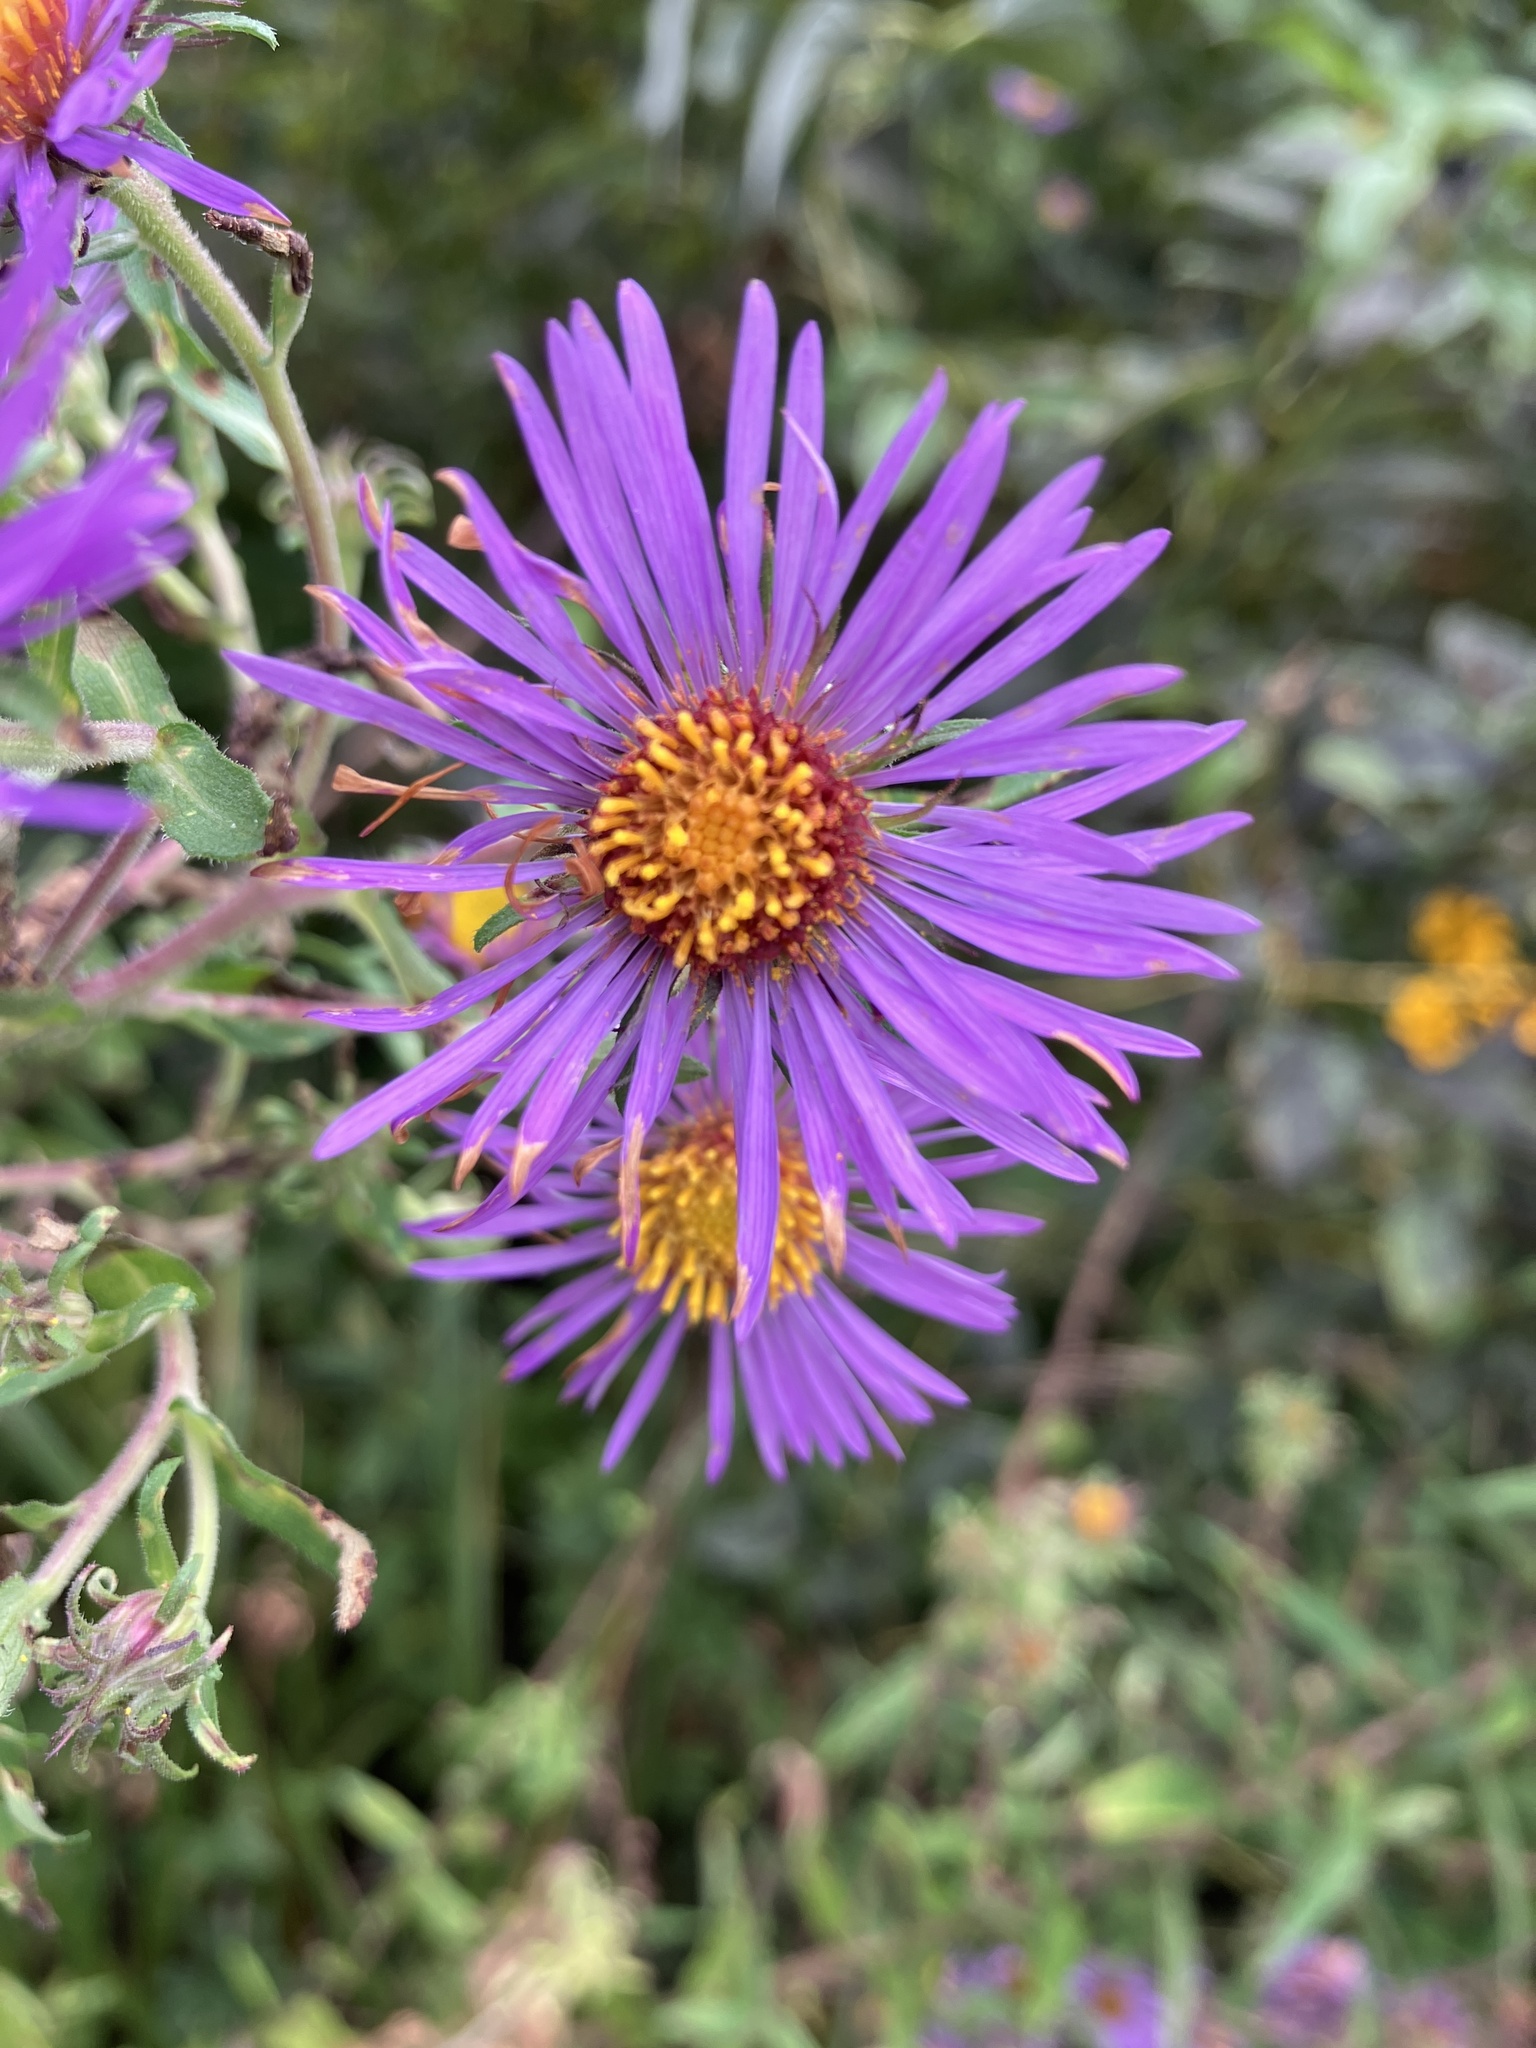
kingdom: Plantae
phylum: Tracheophyta
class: Magnoliopsida
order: Asterales
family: Asteraceae
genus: Symphyotrichum
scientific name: Symphyotrichum novae-angliae
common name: Michaelmas daisy
